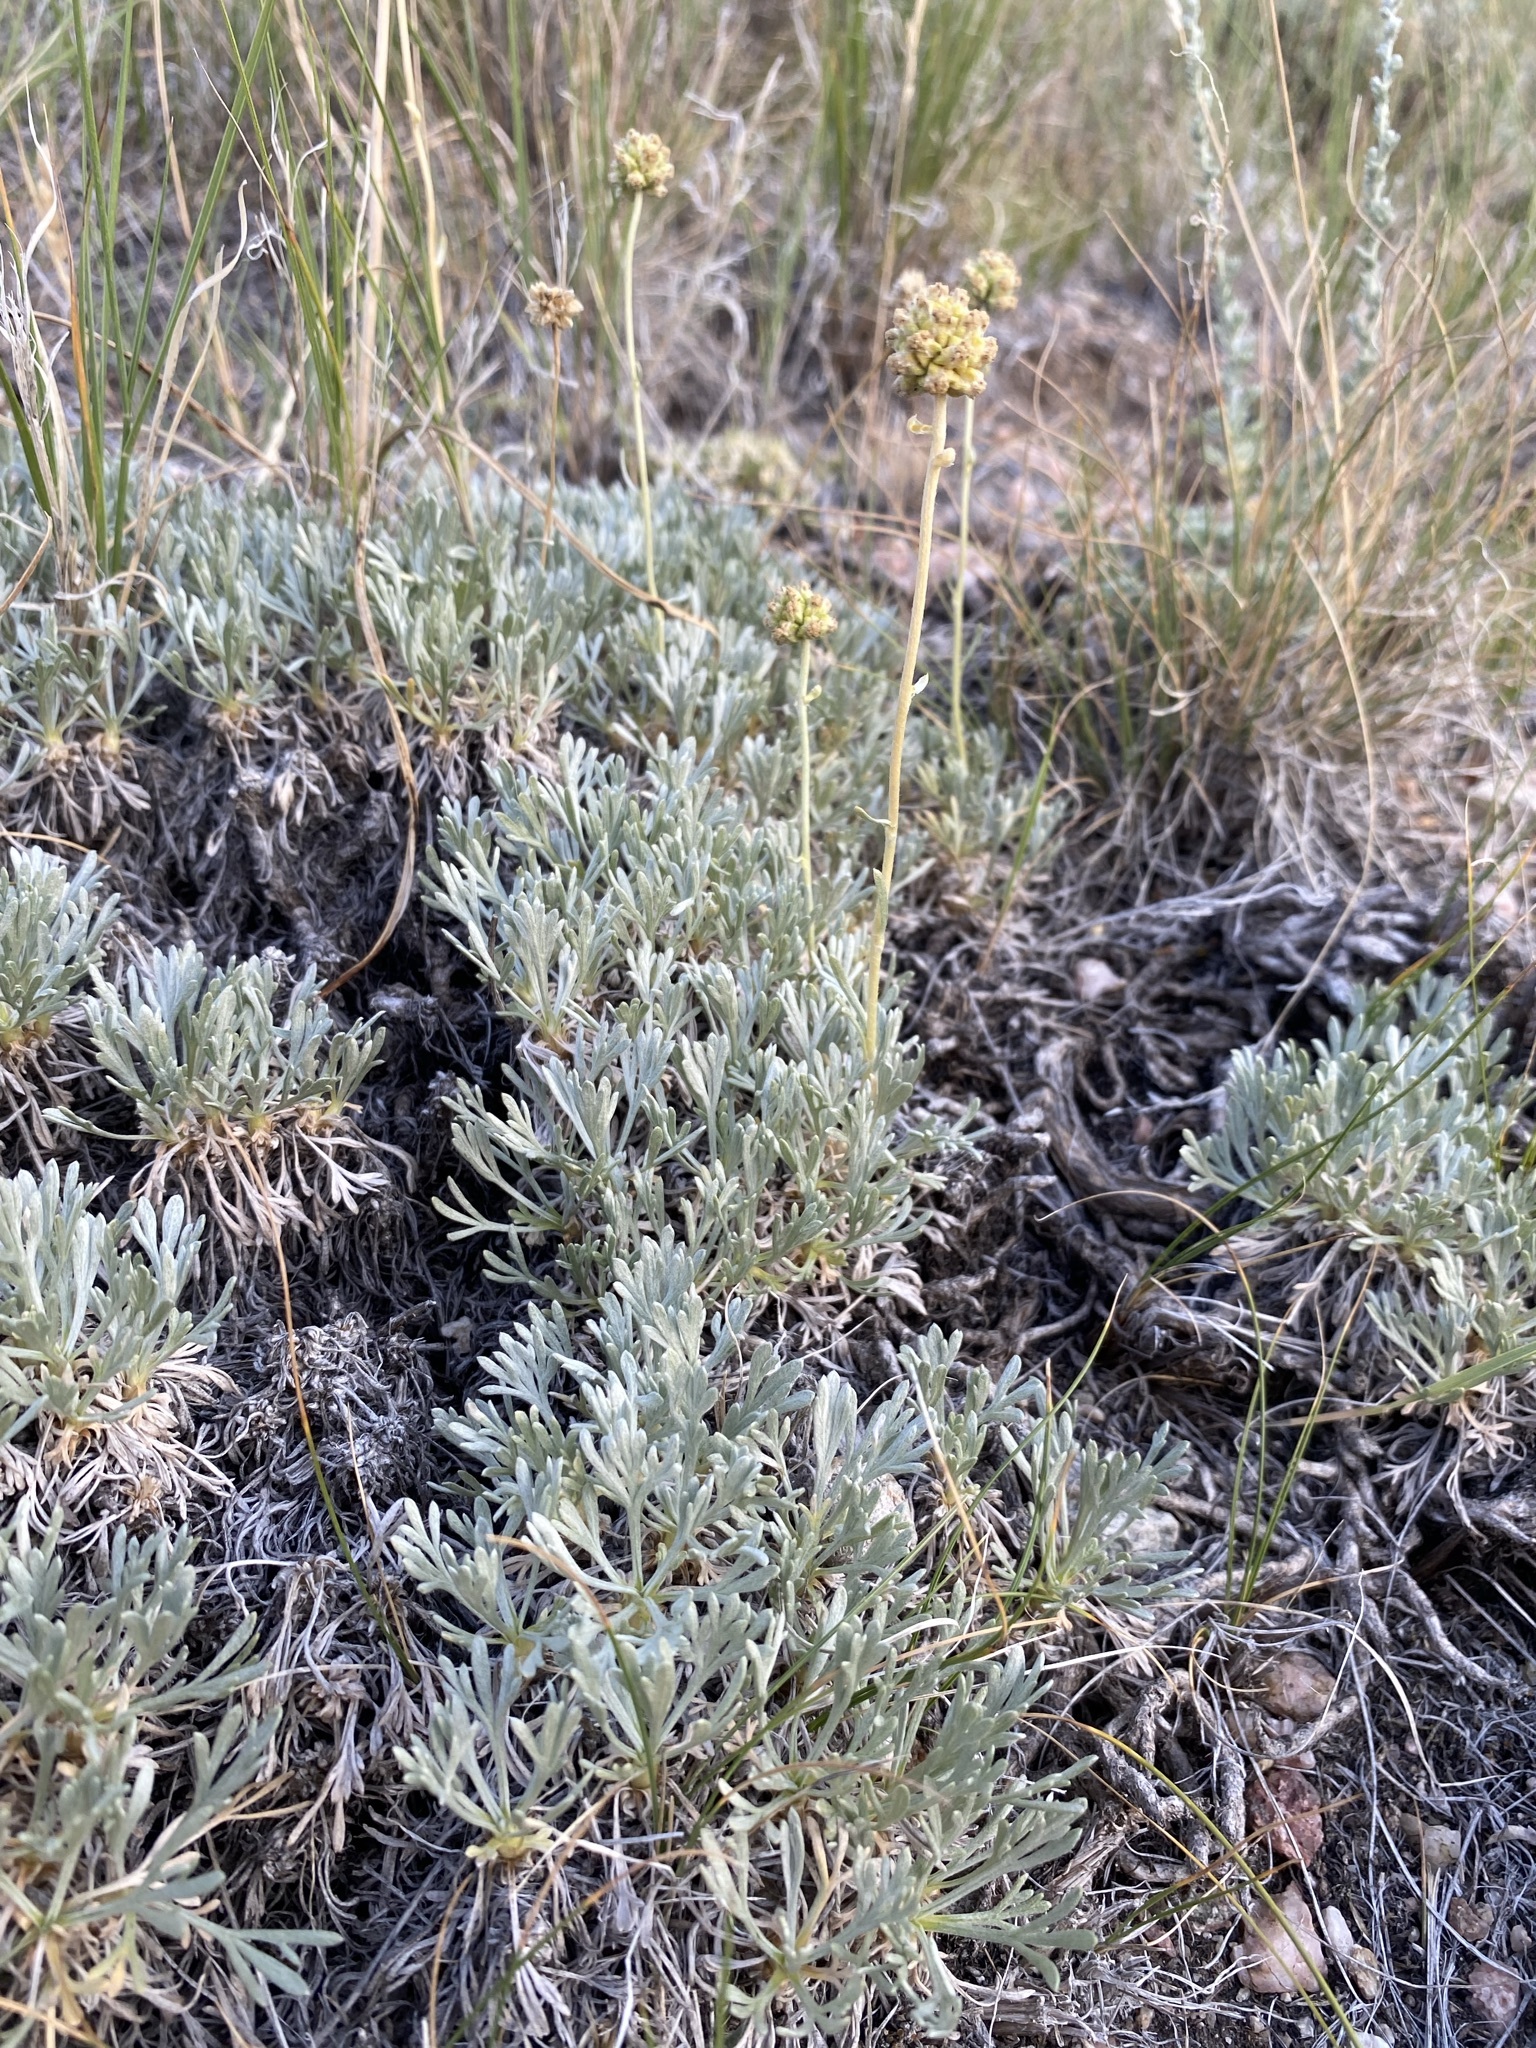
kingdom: Plantae
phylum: Tracheophyta
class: Magnoliopsida
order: Asterales
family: Asteraceae
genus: Artemisia
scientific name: Artemisia capitata
